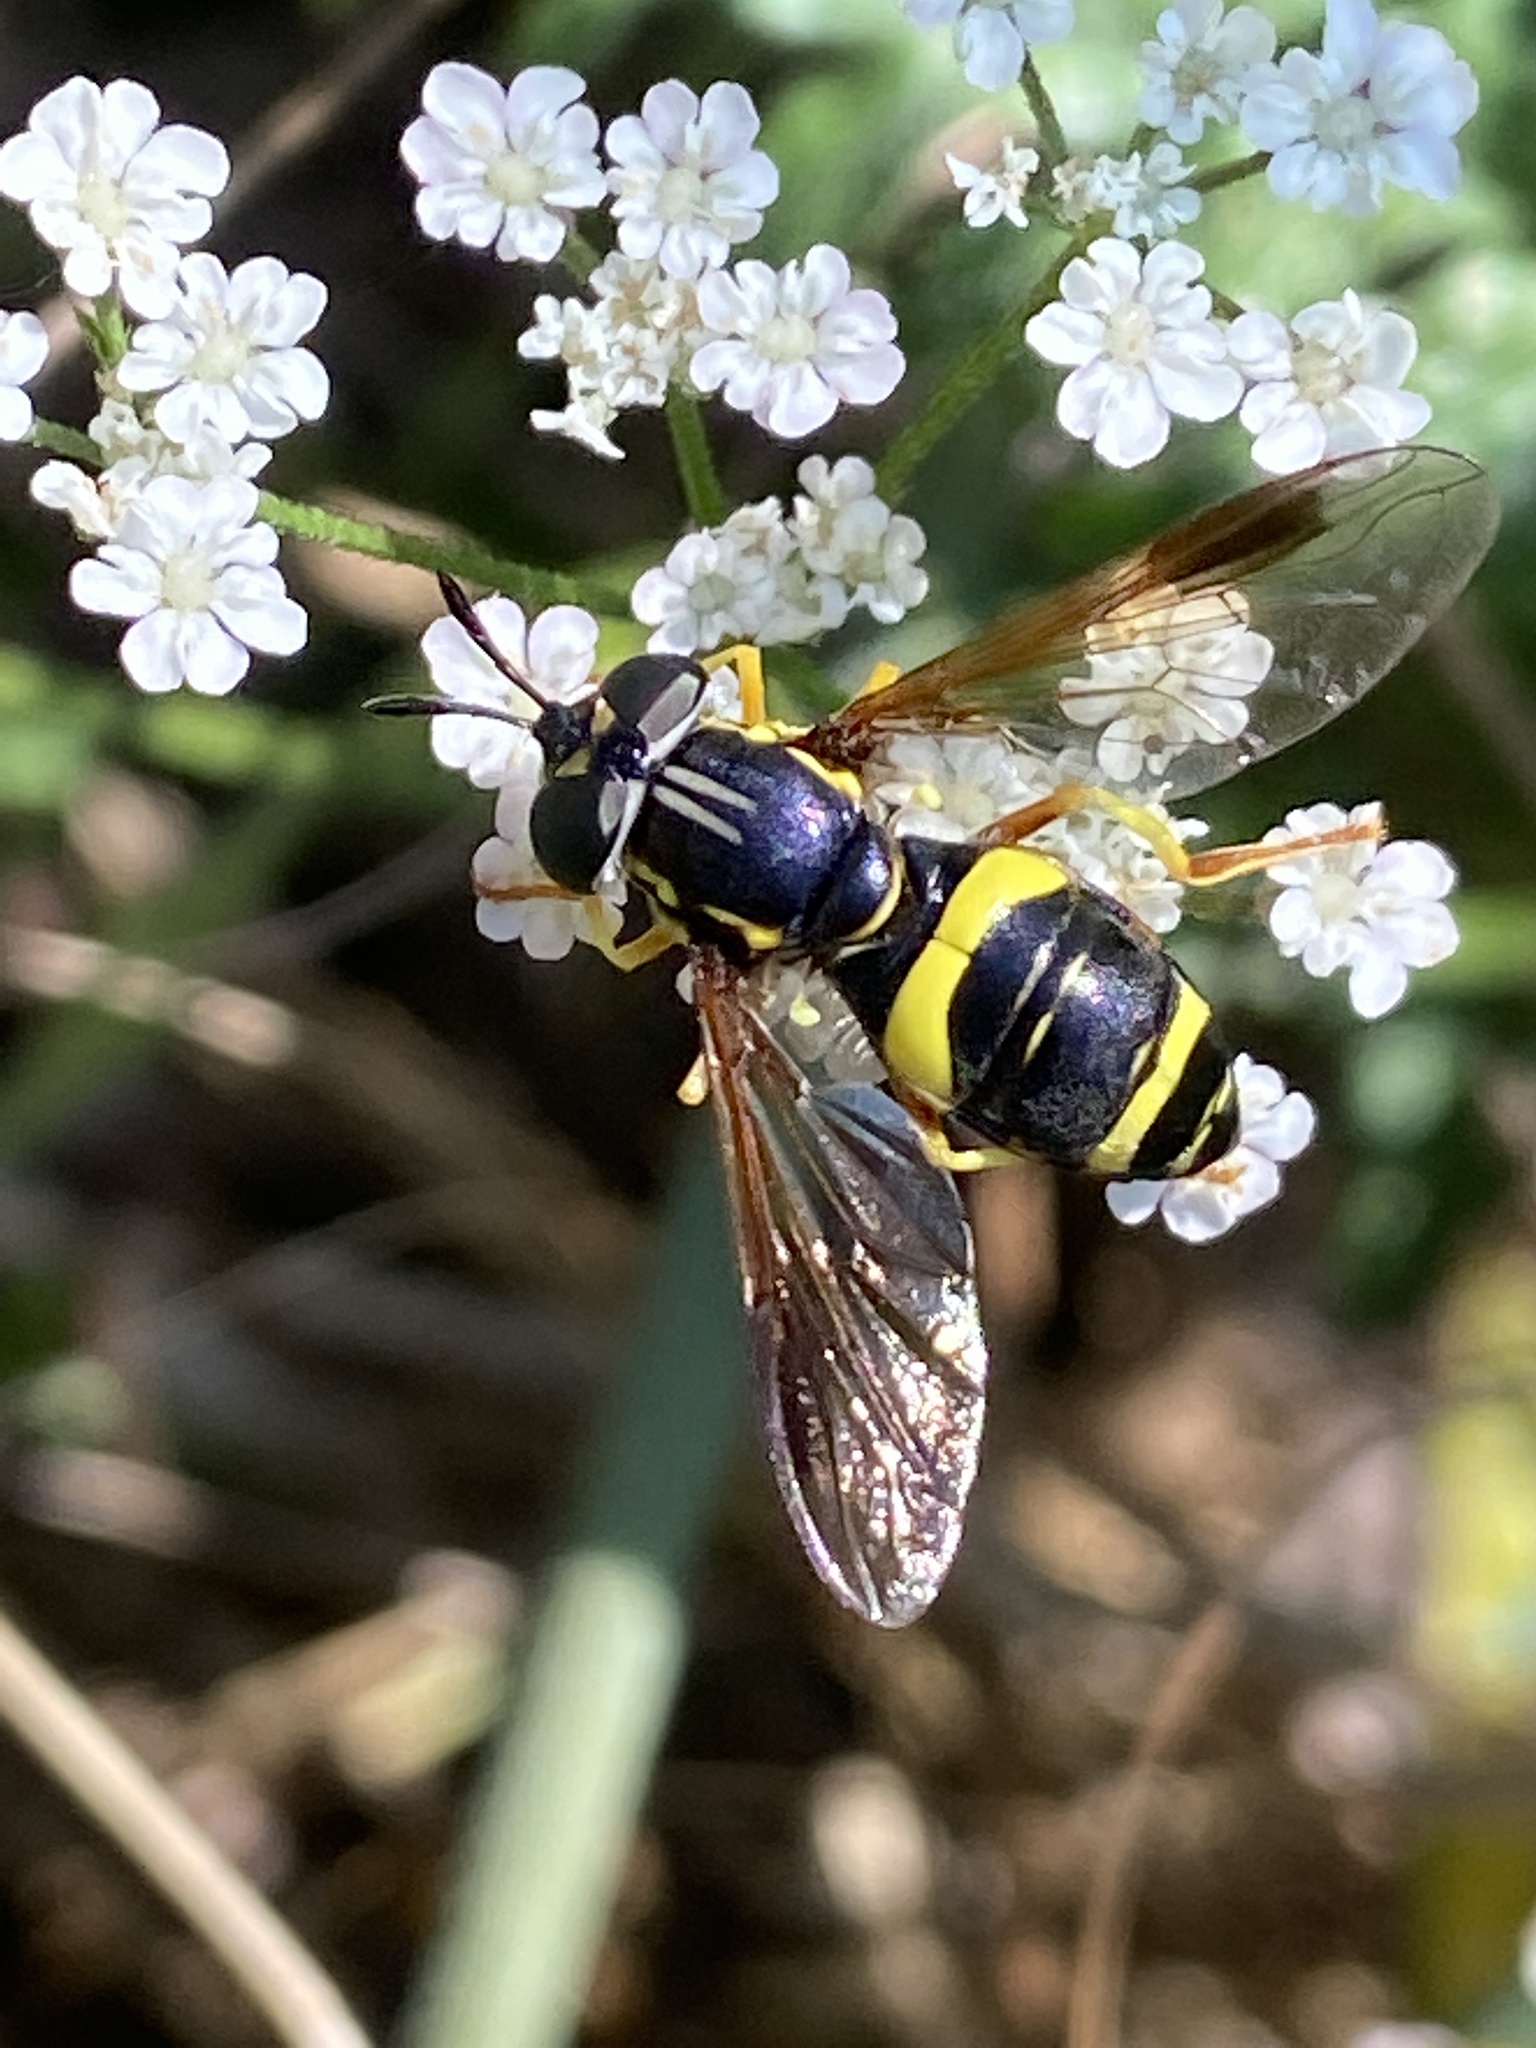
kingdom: Animalia
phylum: Arthropoda
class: Insecta
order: Diptera
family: Syrphidae
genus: Chrysotoxum
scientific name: Chrysotoxum bicincta
